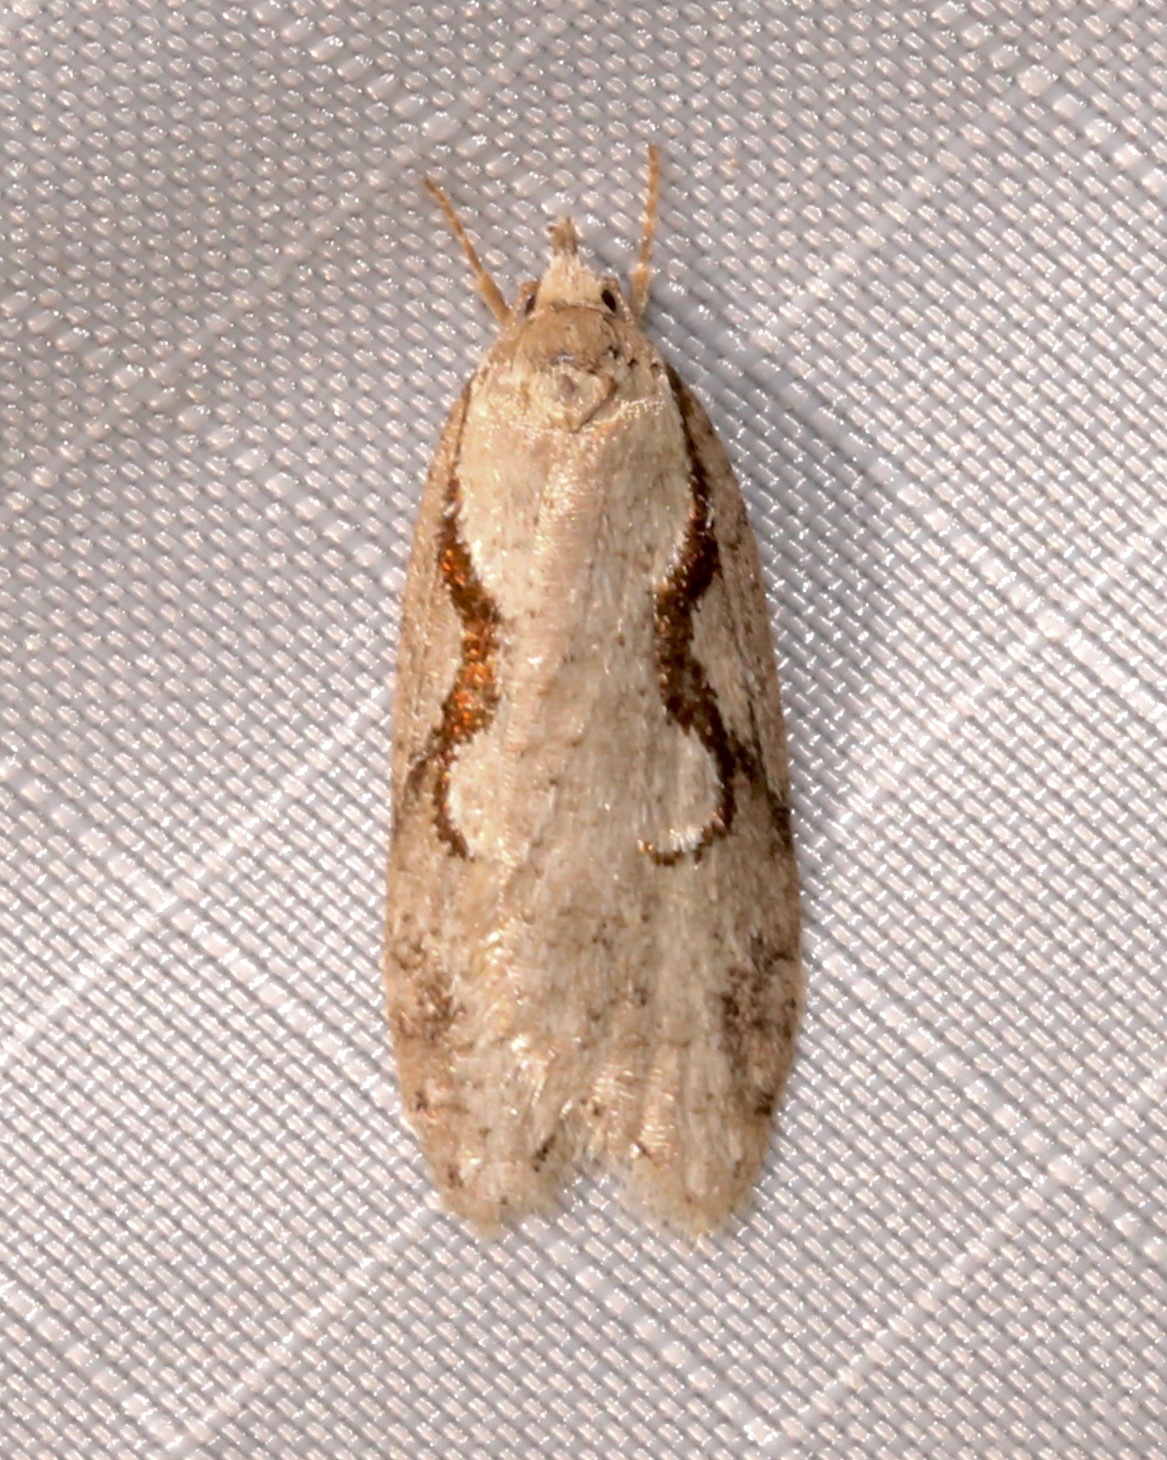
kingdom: Animalia
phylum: Arthropoda
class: Insecta
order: Lepidoptera
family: Depressariidae
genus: Semioscopis
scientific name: Semioscopis packardella
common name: Packard's concealer moth
